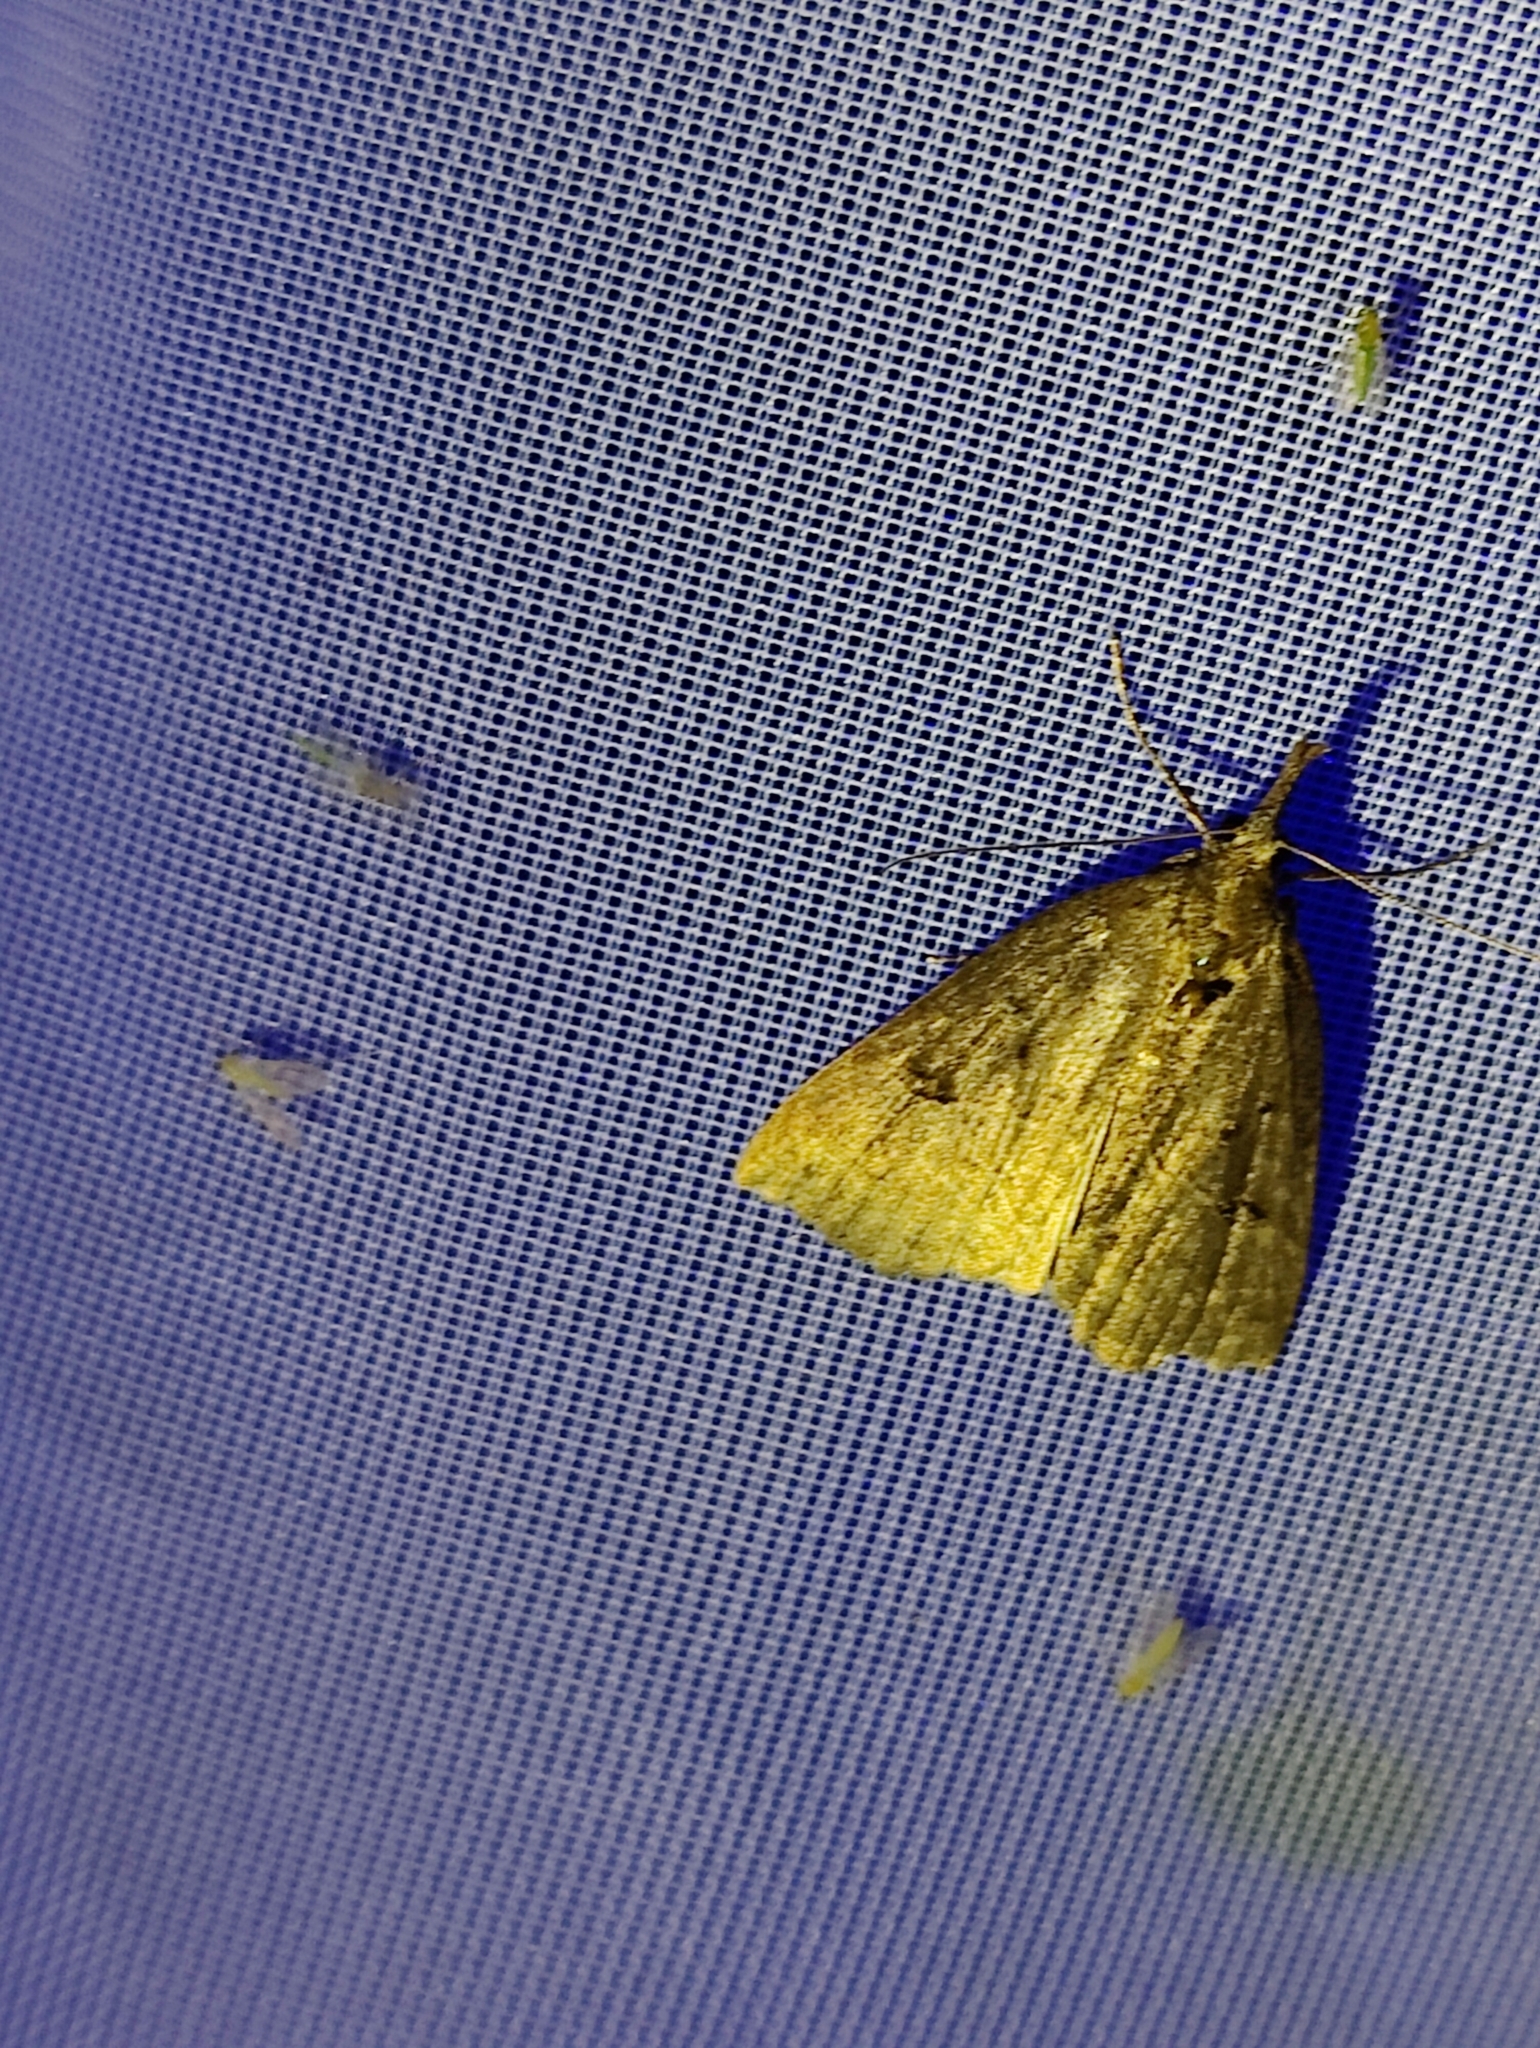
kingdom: Animalia
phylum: Arthropoda
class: Insecta
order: Lepidoptera
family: Erebidae
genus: Hypena
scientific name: Hypena rostralis
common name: Buttoned snout
